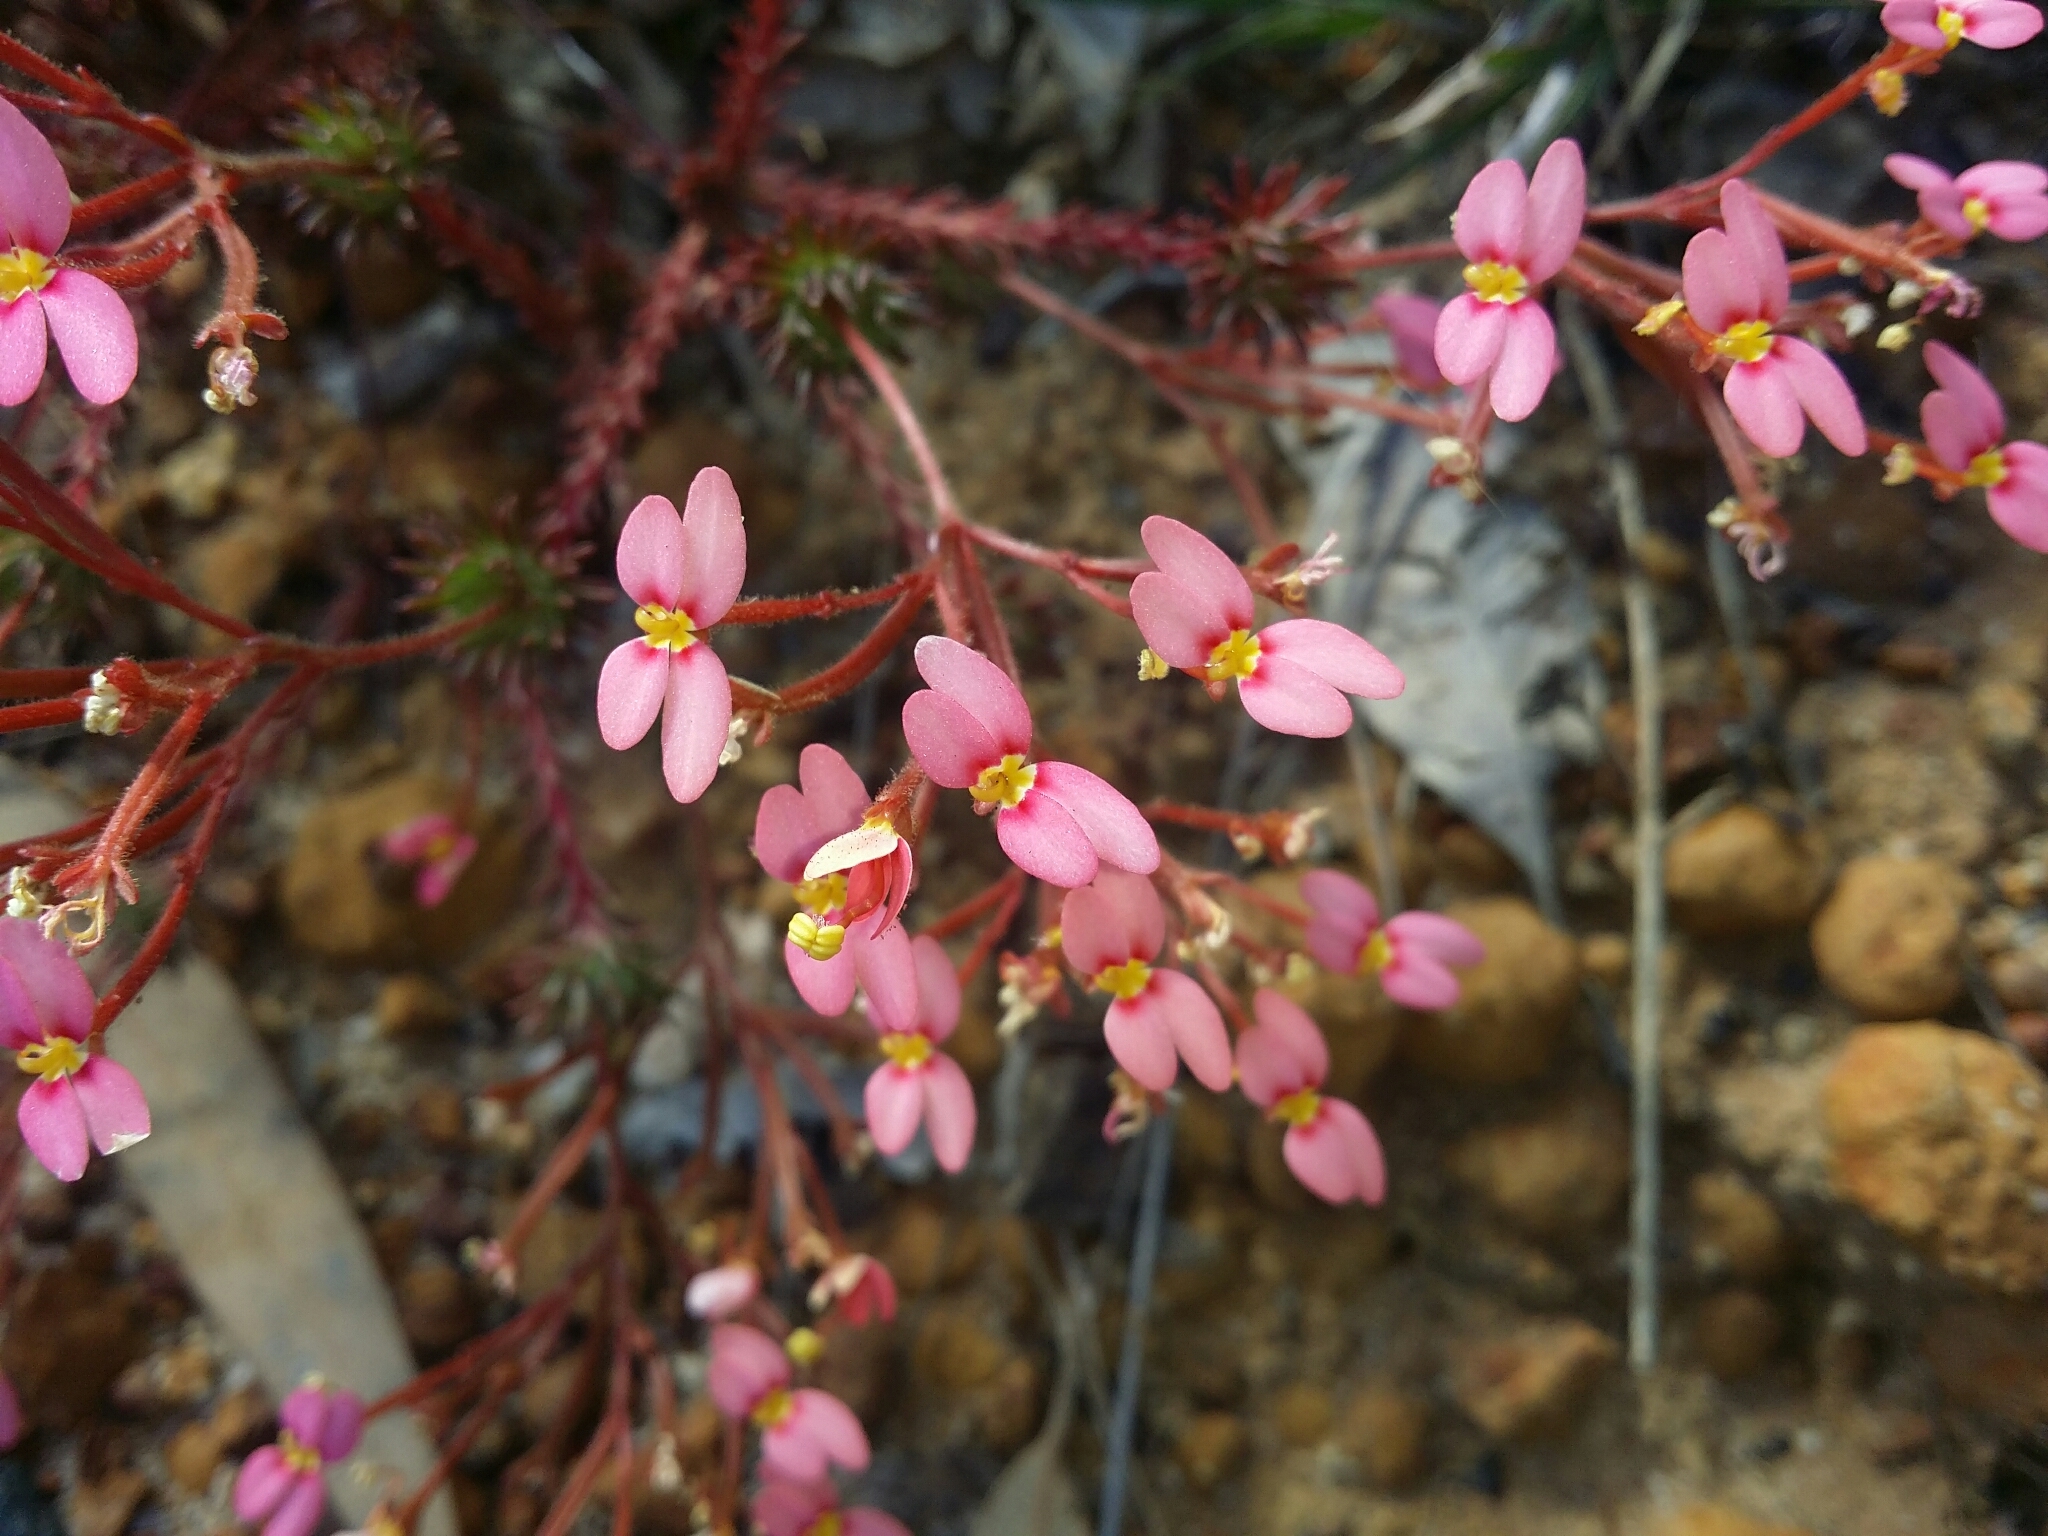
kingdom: Plantae
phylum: Tracheophyta
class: Magnoliopsida
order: Asterales
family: Stylidiaceae
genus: Stylidium
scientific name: Stylidium bulbiferum
